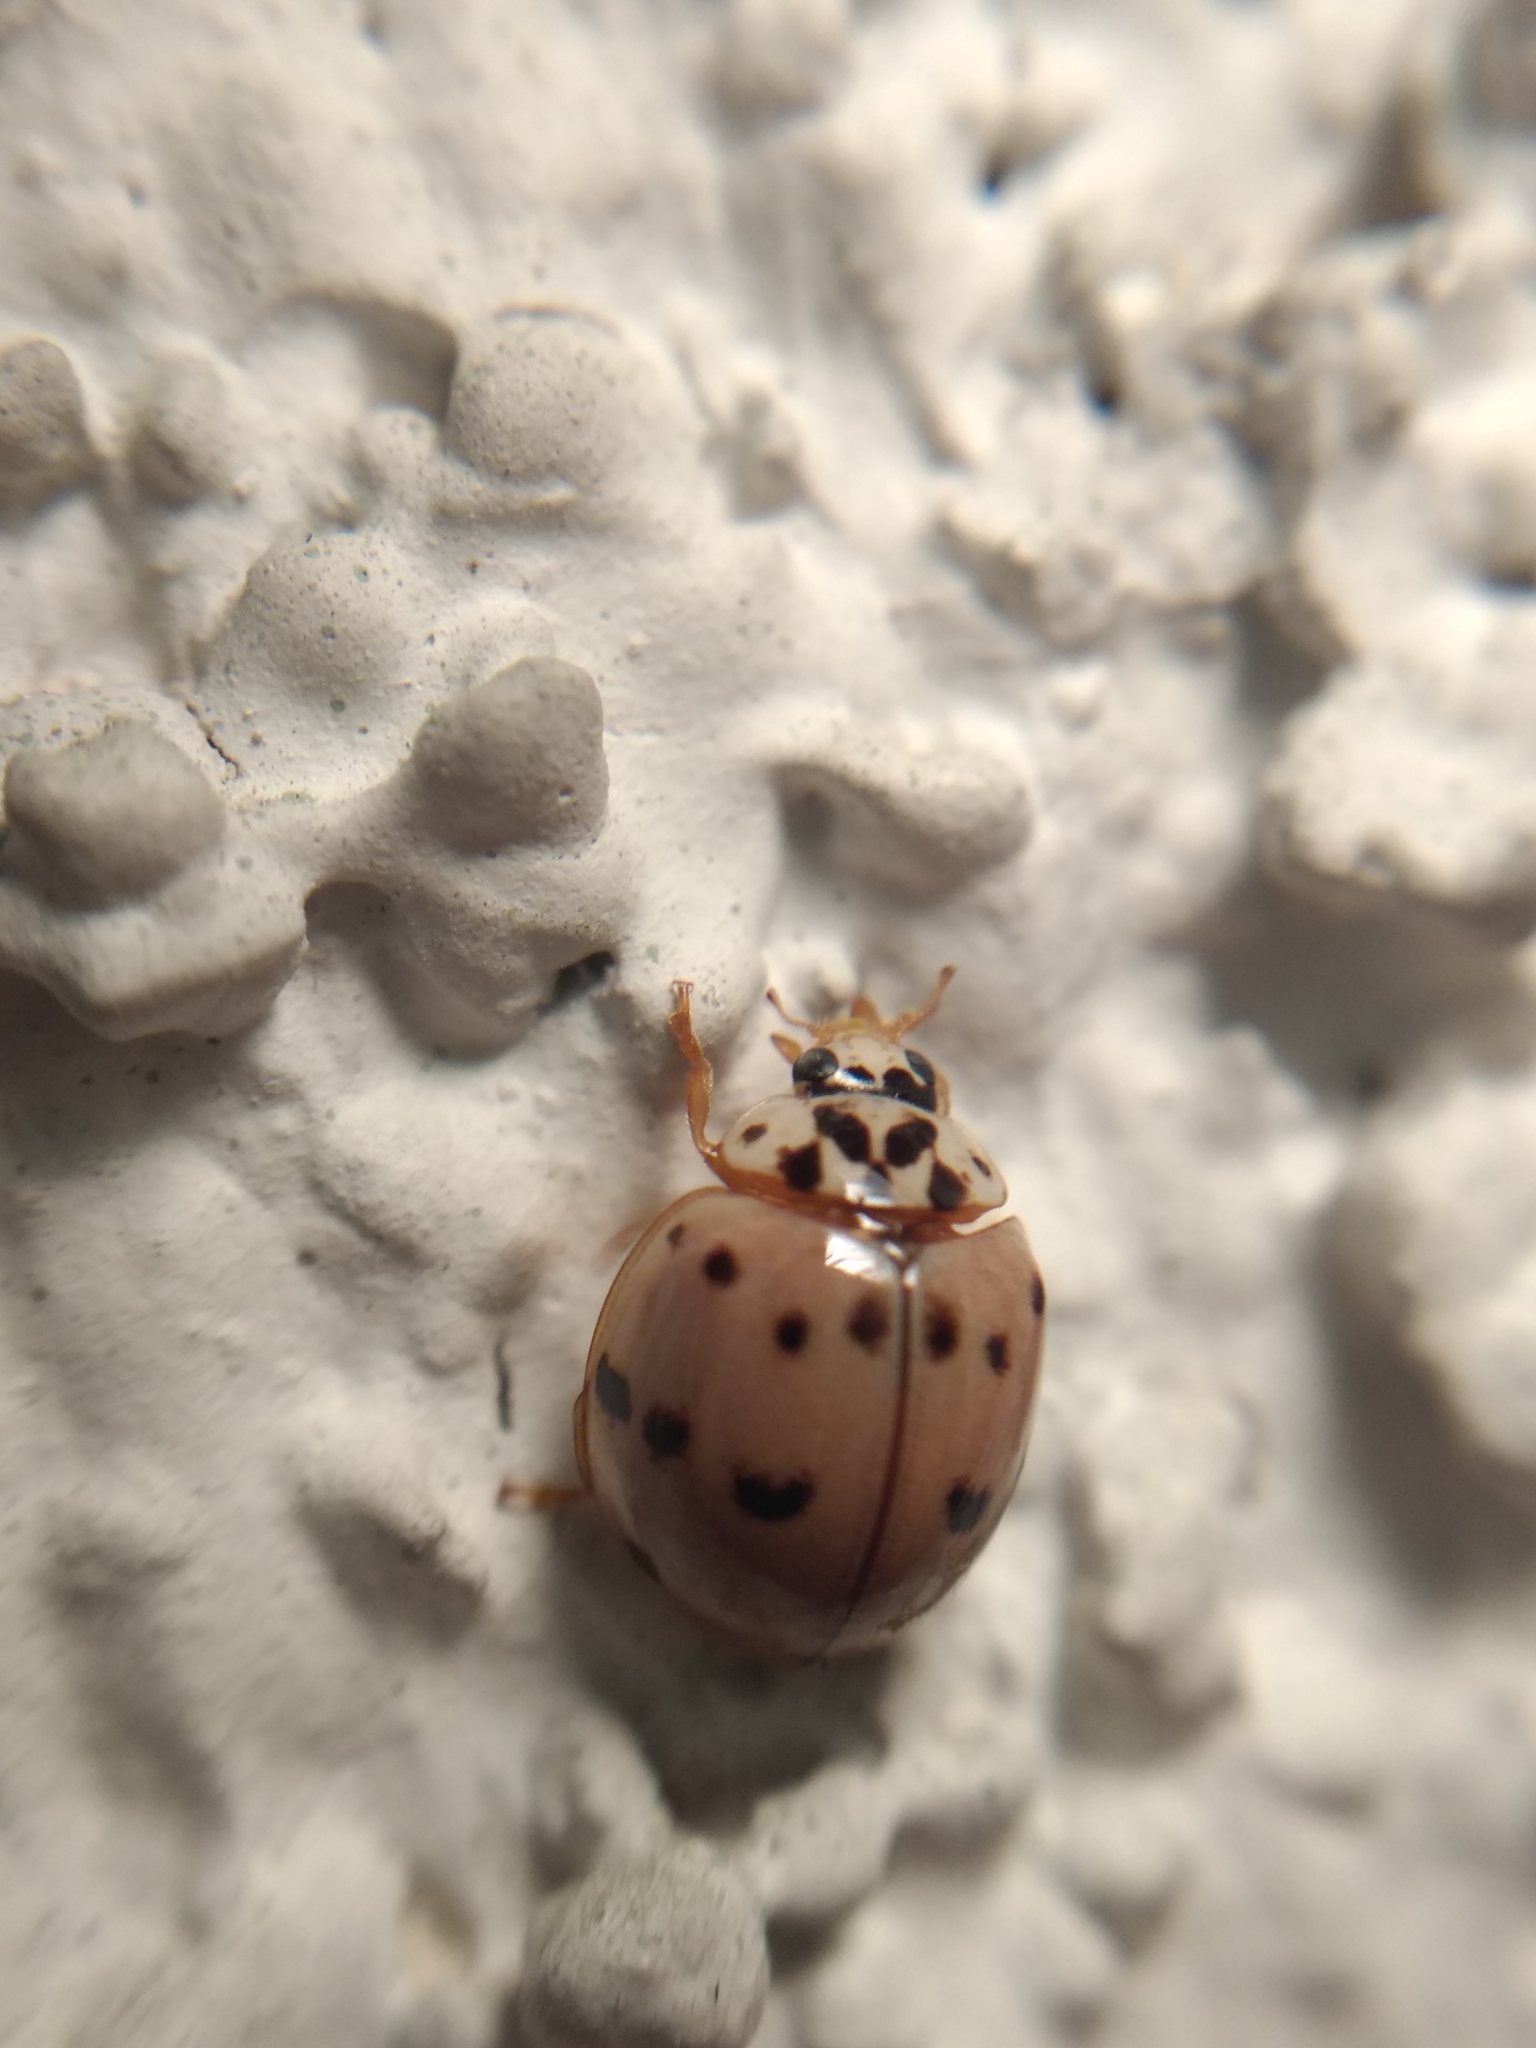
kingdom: Animalia
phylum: Arthropoda
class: Insecta
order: Coleoptera
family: Coccinellidae
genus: Olla
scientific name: Olla v-nigrum
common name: Ashy gray lady beetle
